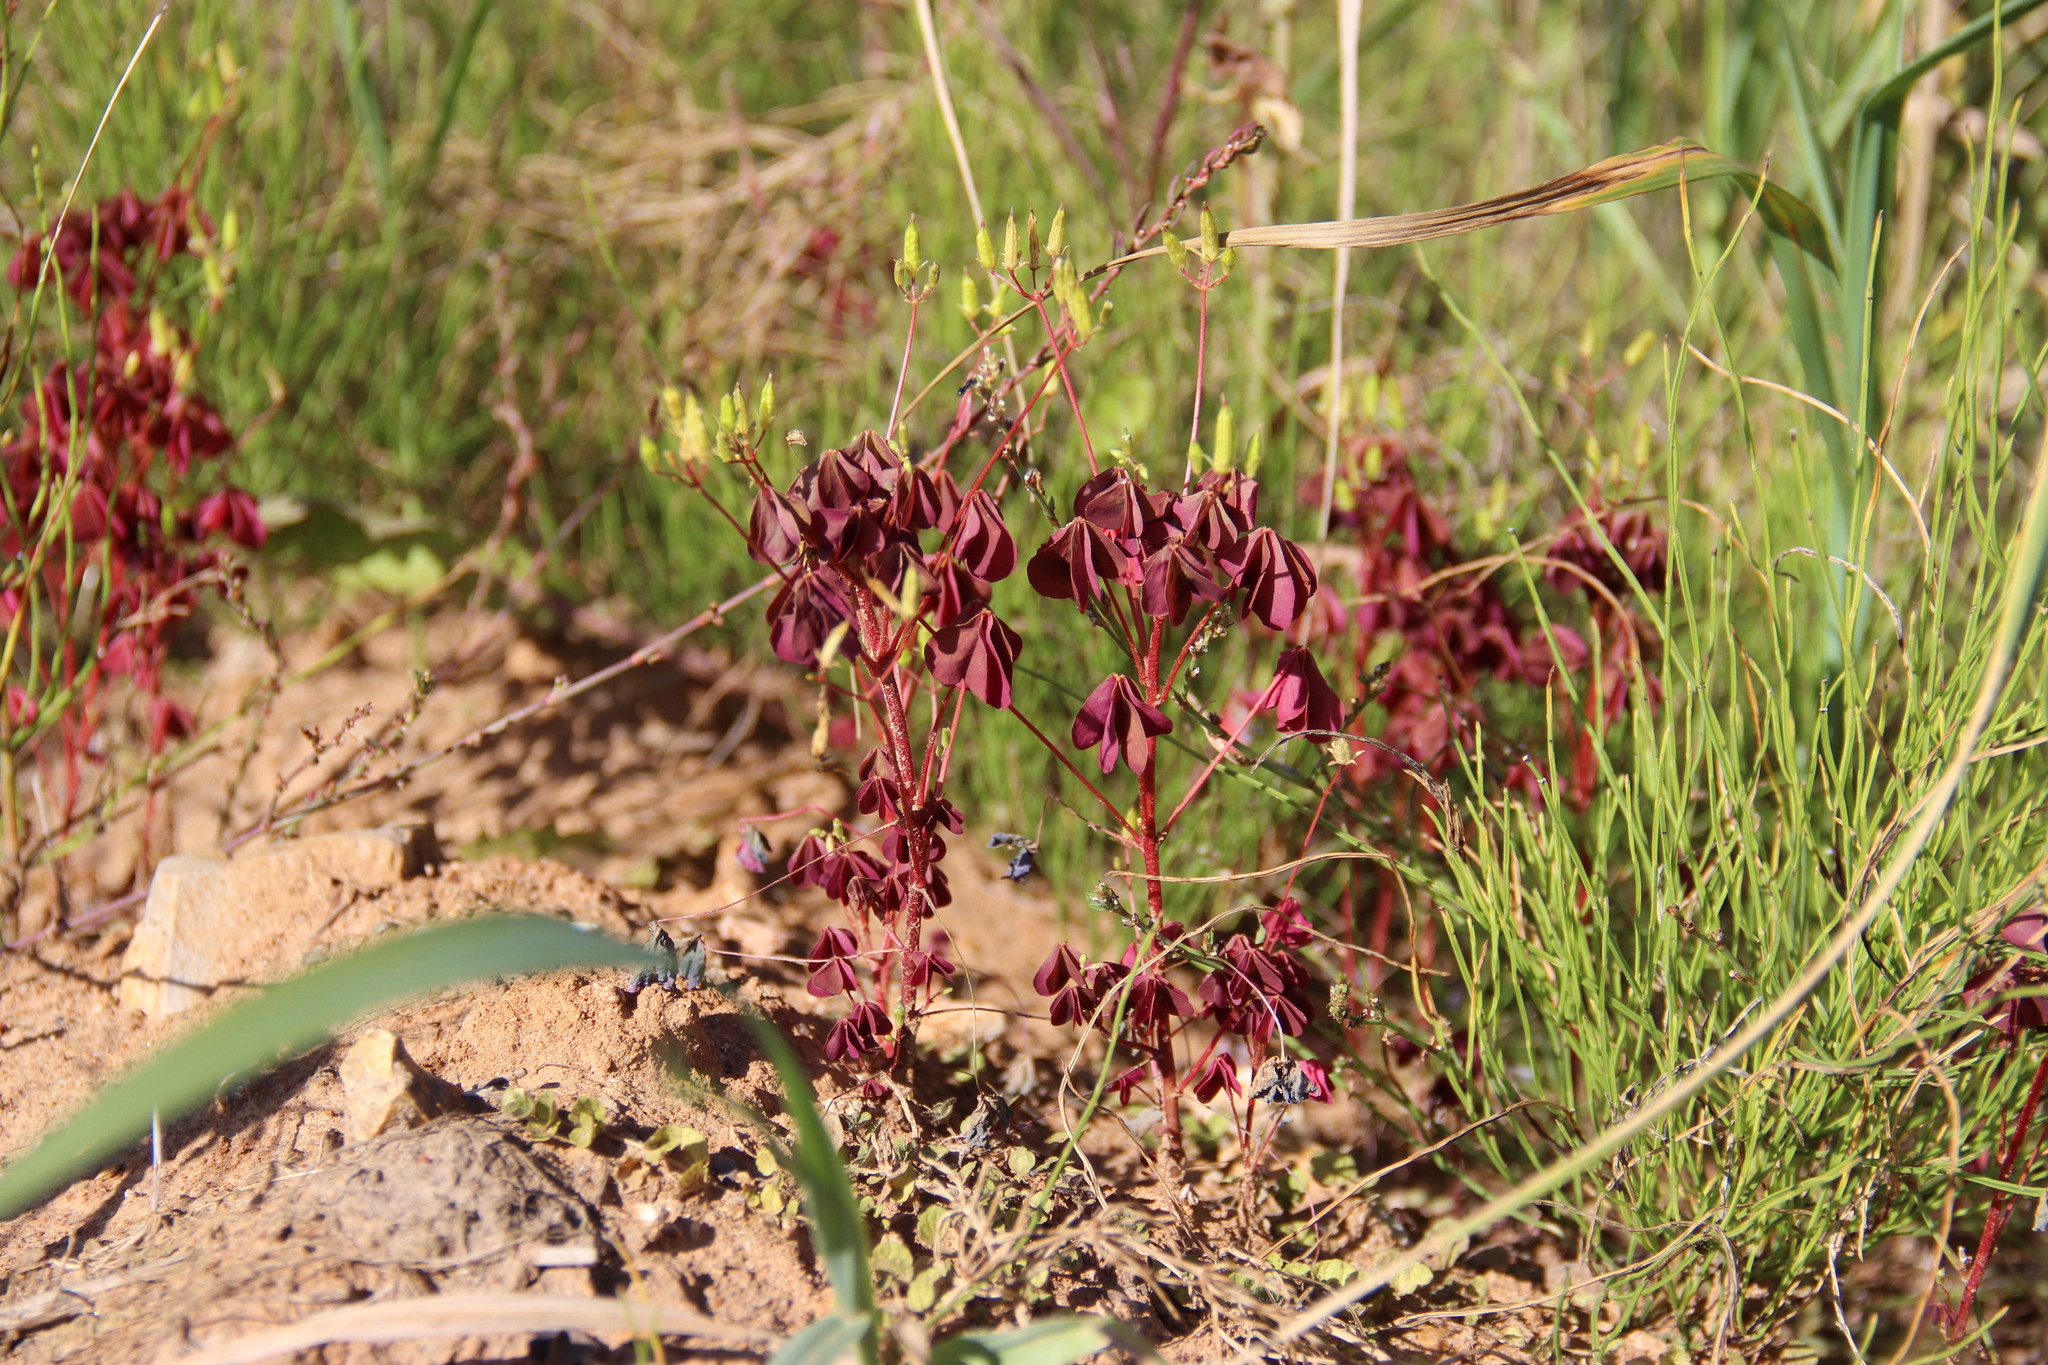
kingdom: Plantae
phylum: Tracheophyta
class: Magnoliopsida
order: Oxalidales
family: Oxalidaceae
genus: Oxalis
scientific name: Oxalis stricta
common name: Upright yellow-sorrel
